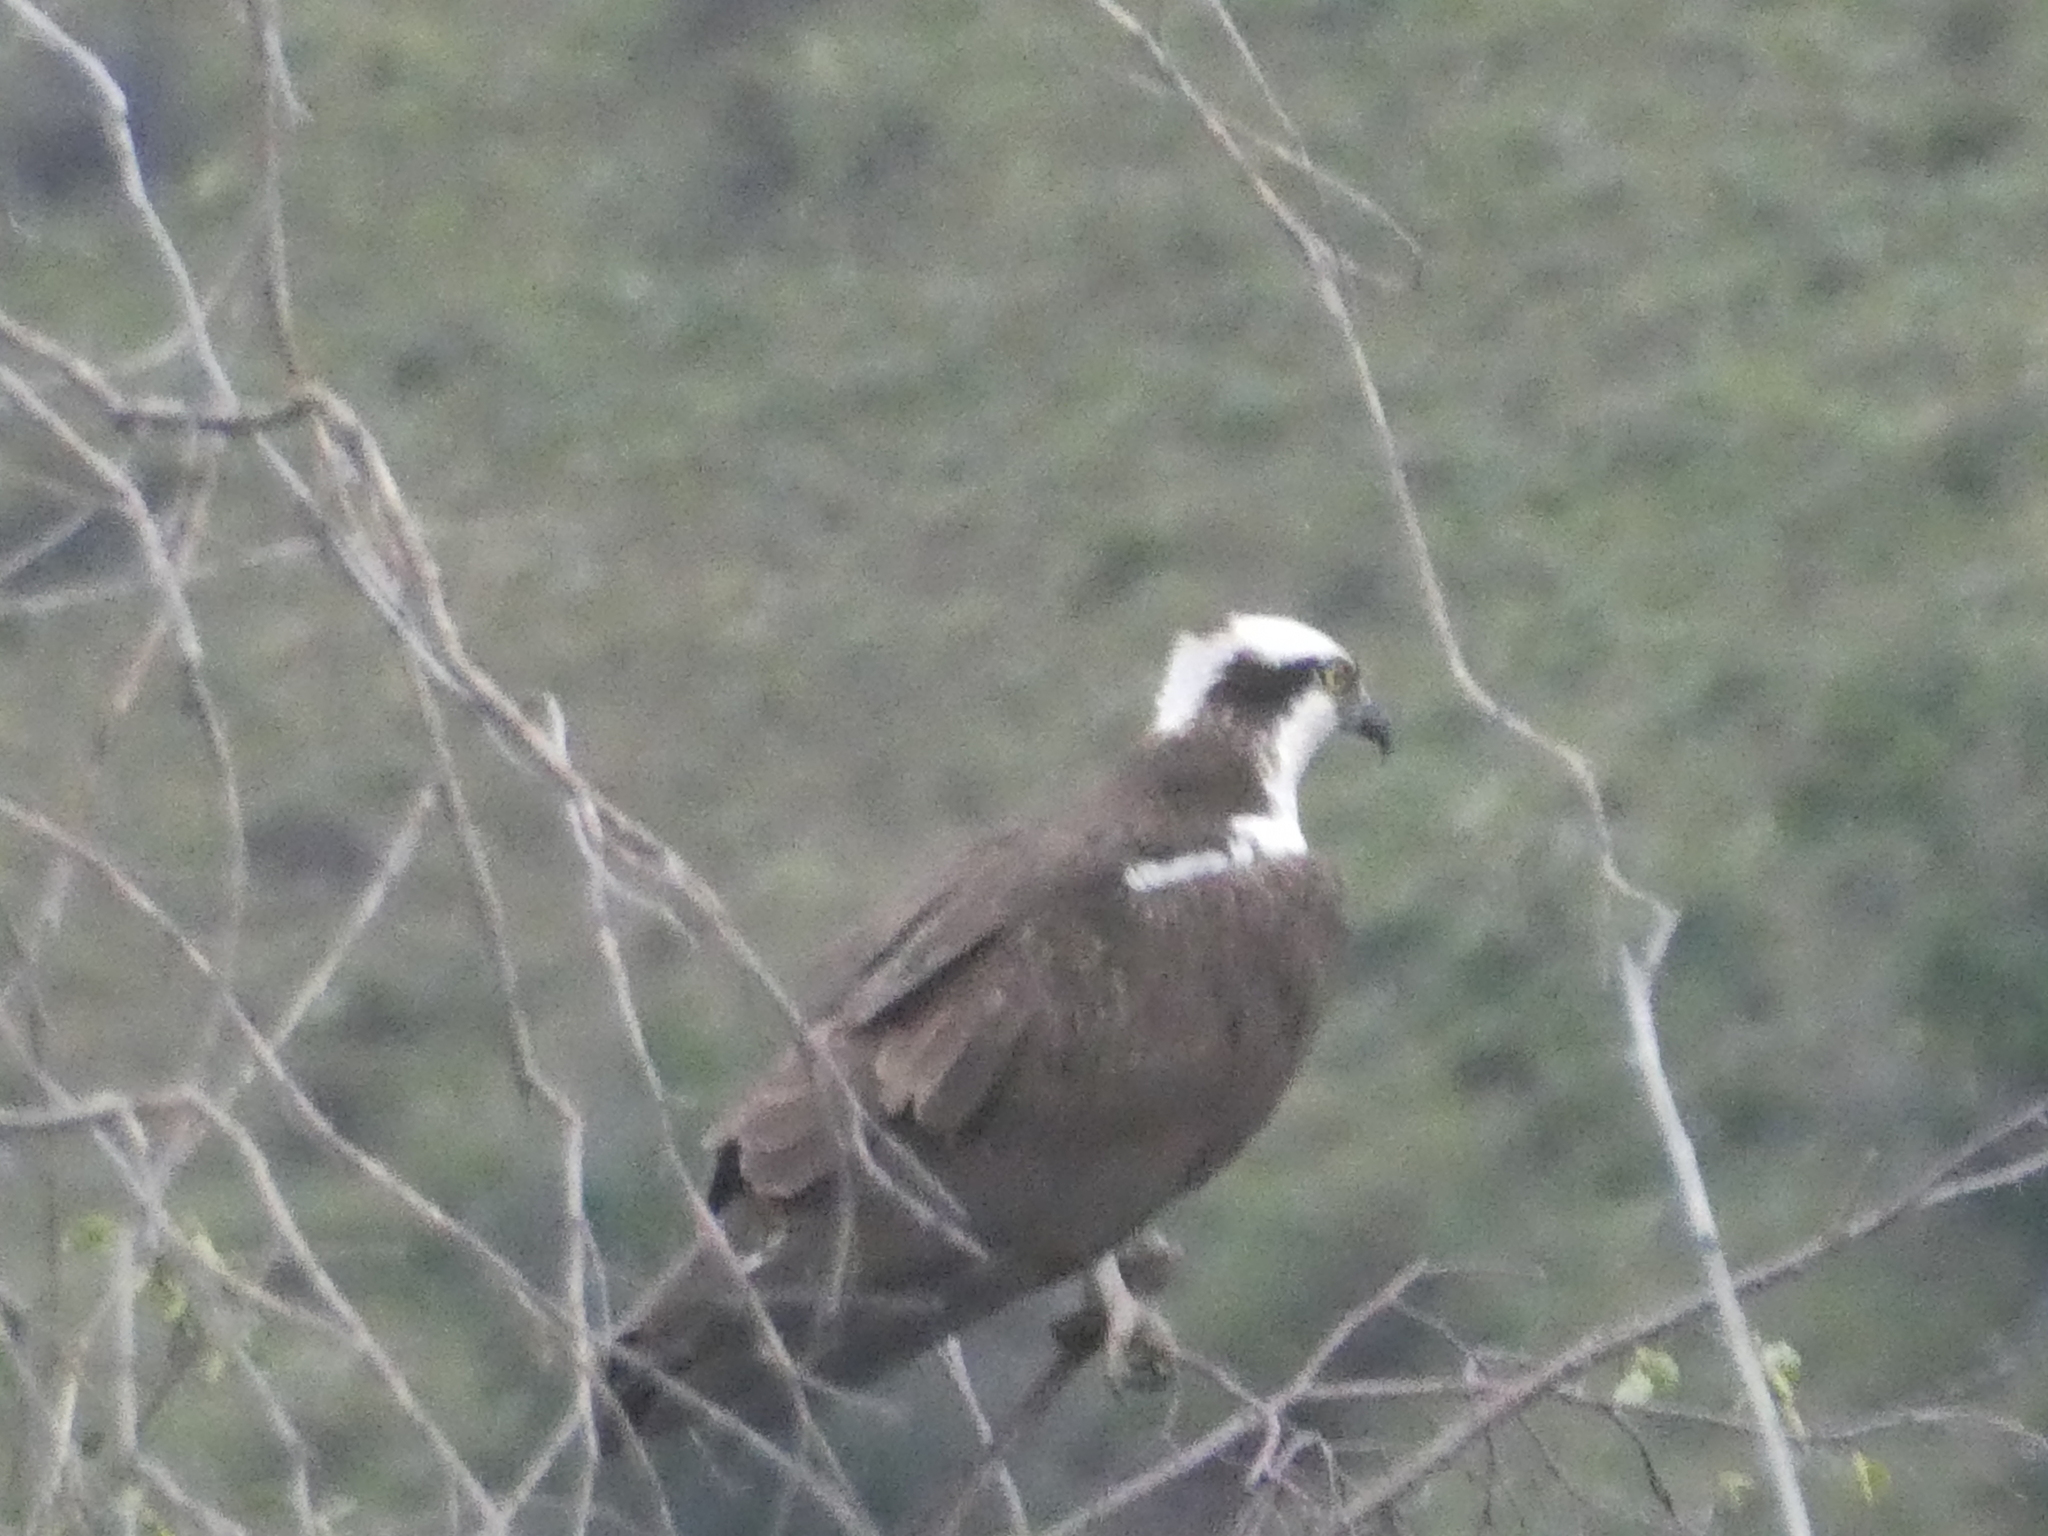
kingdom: Animalia
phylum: Chordata
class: Aves
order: Accipitriformes
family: Pandionidae
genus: Pandion
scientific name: Pandion haliaetus
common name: Osprey
